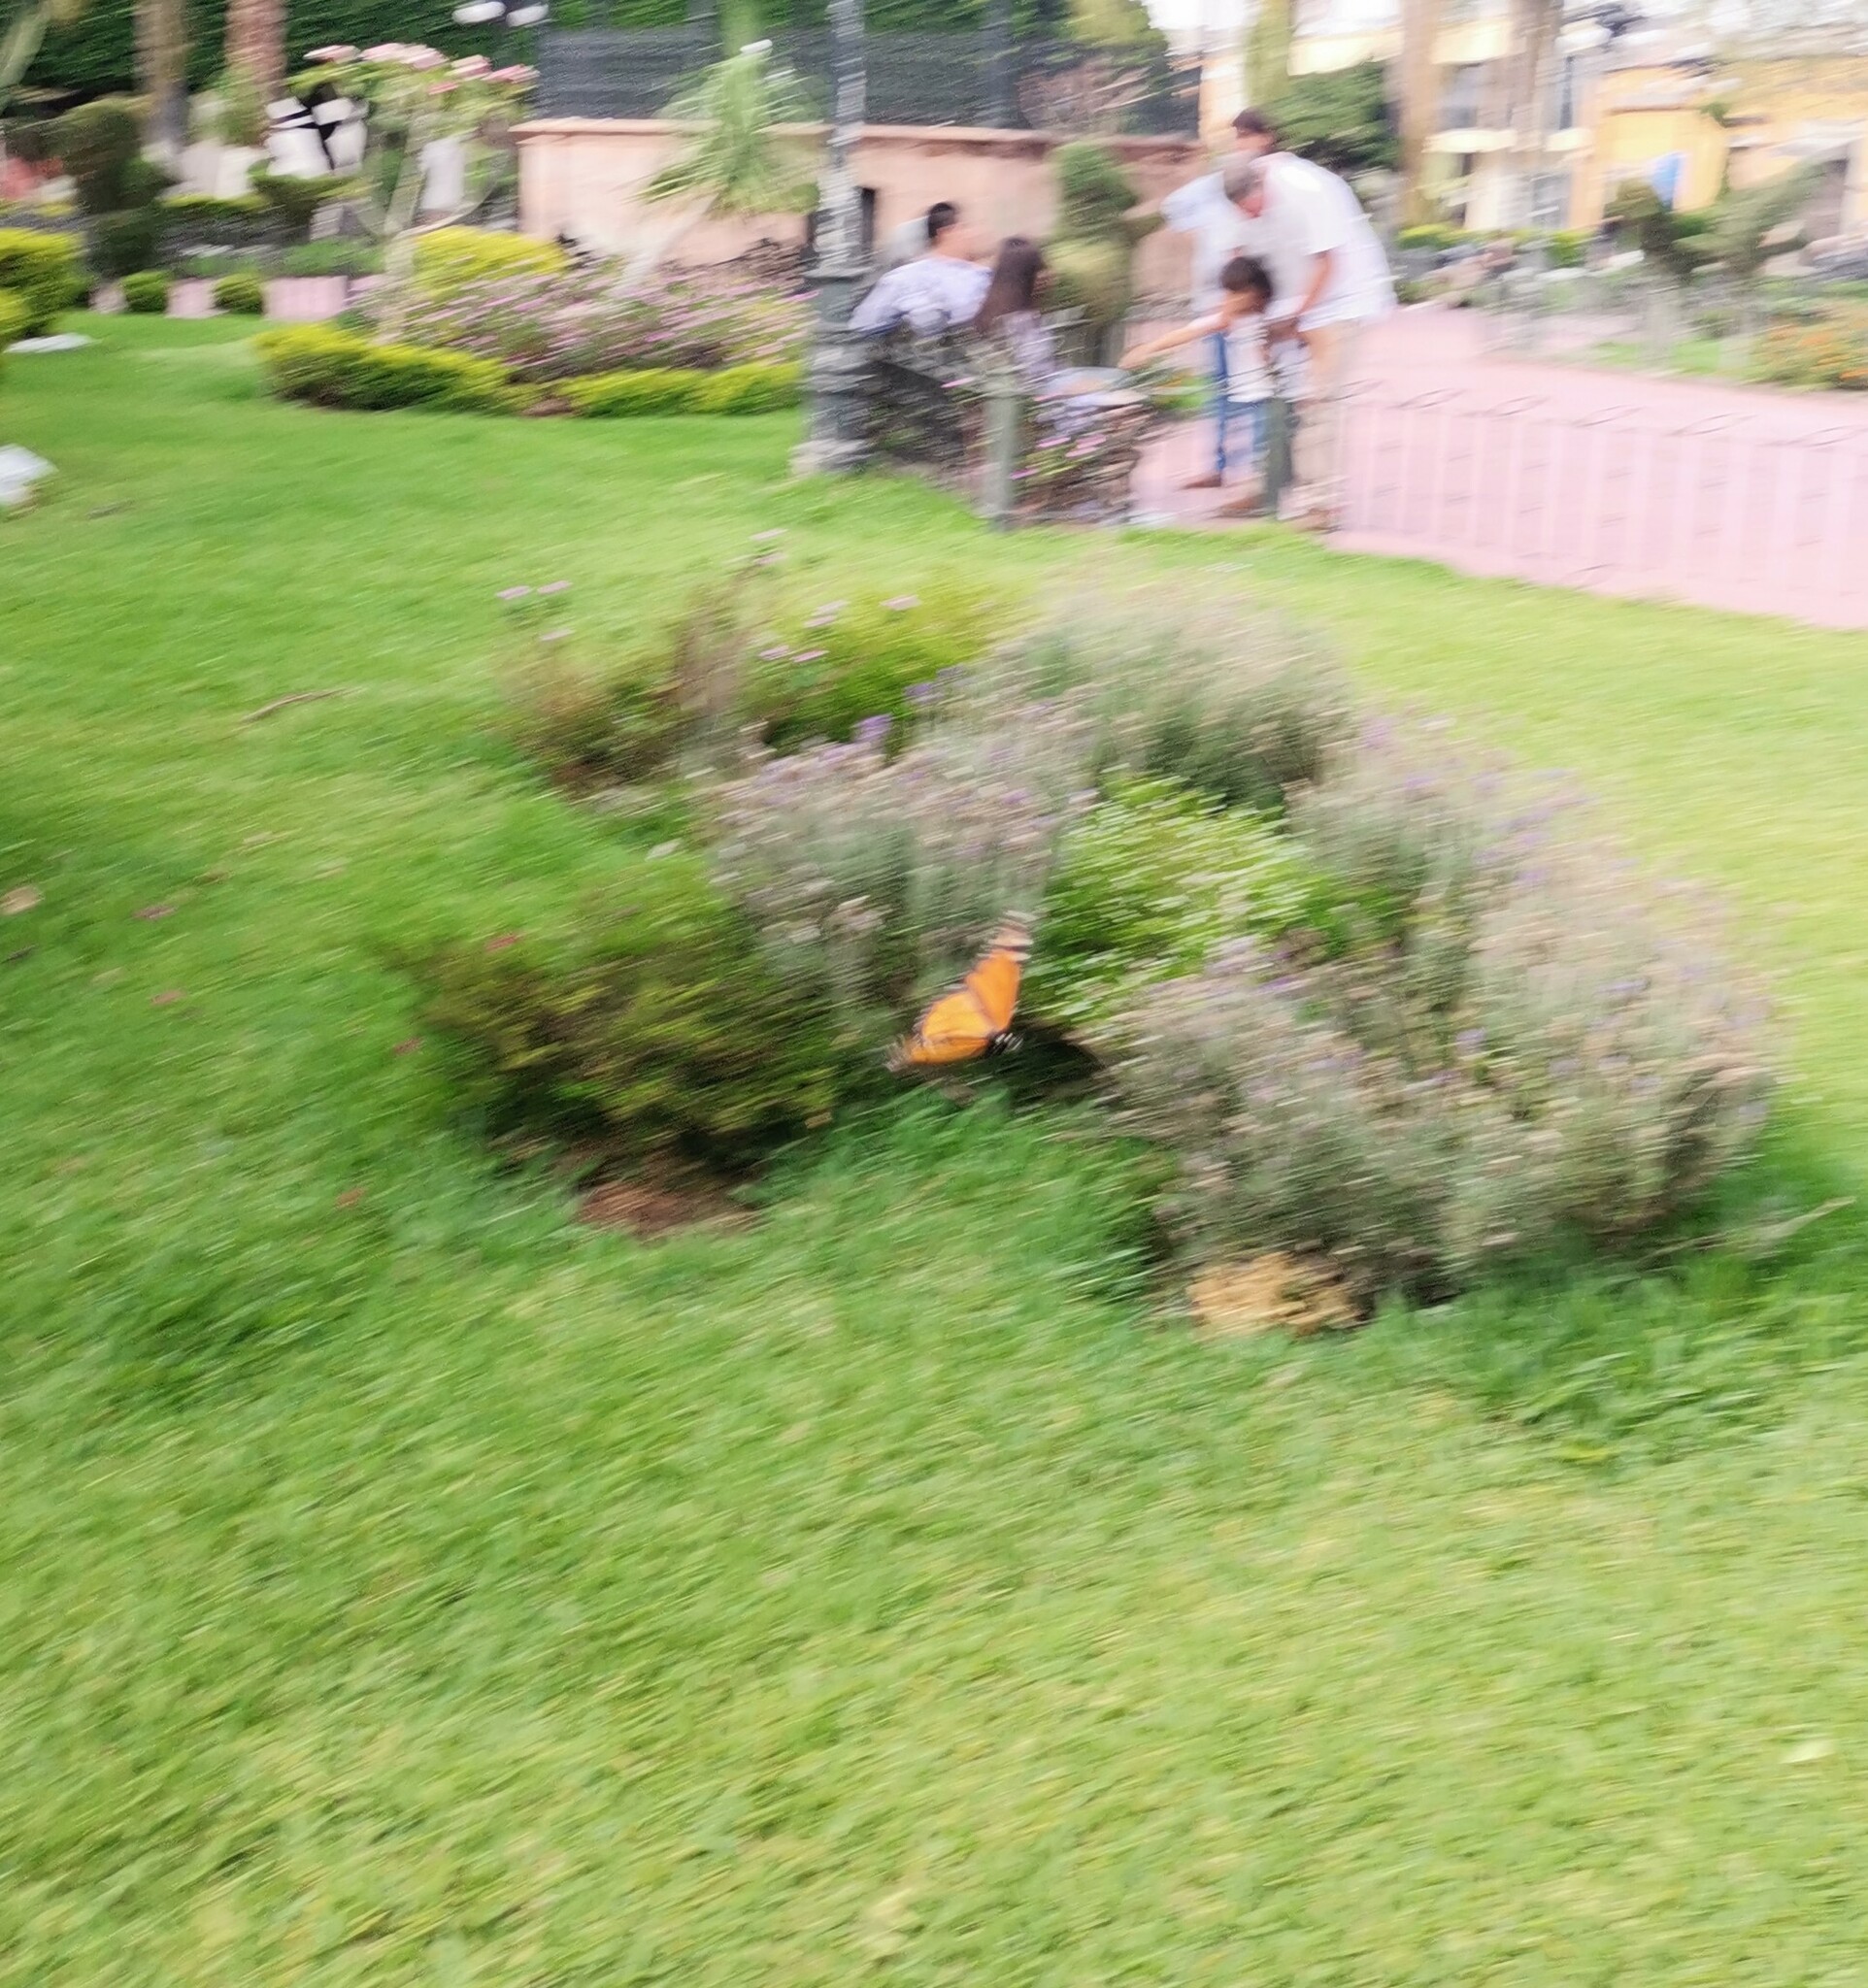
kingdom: Animalia
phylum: Arthropoda
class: Insecta
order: Lepidoptera
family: Nymphalidae
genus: Danaus
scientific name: Danaus plexippus
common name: Monarch
